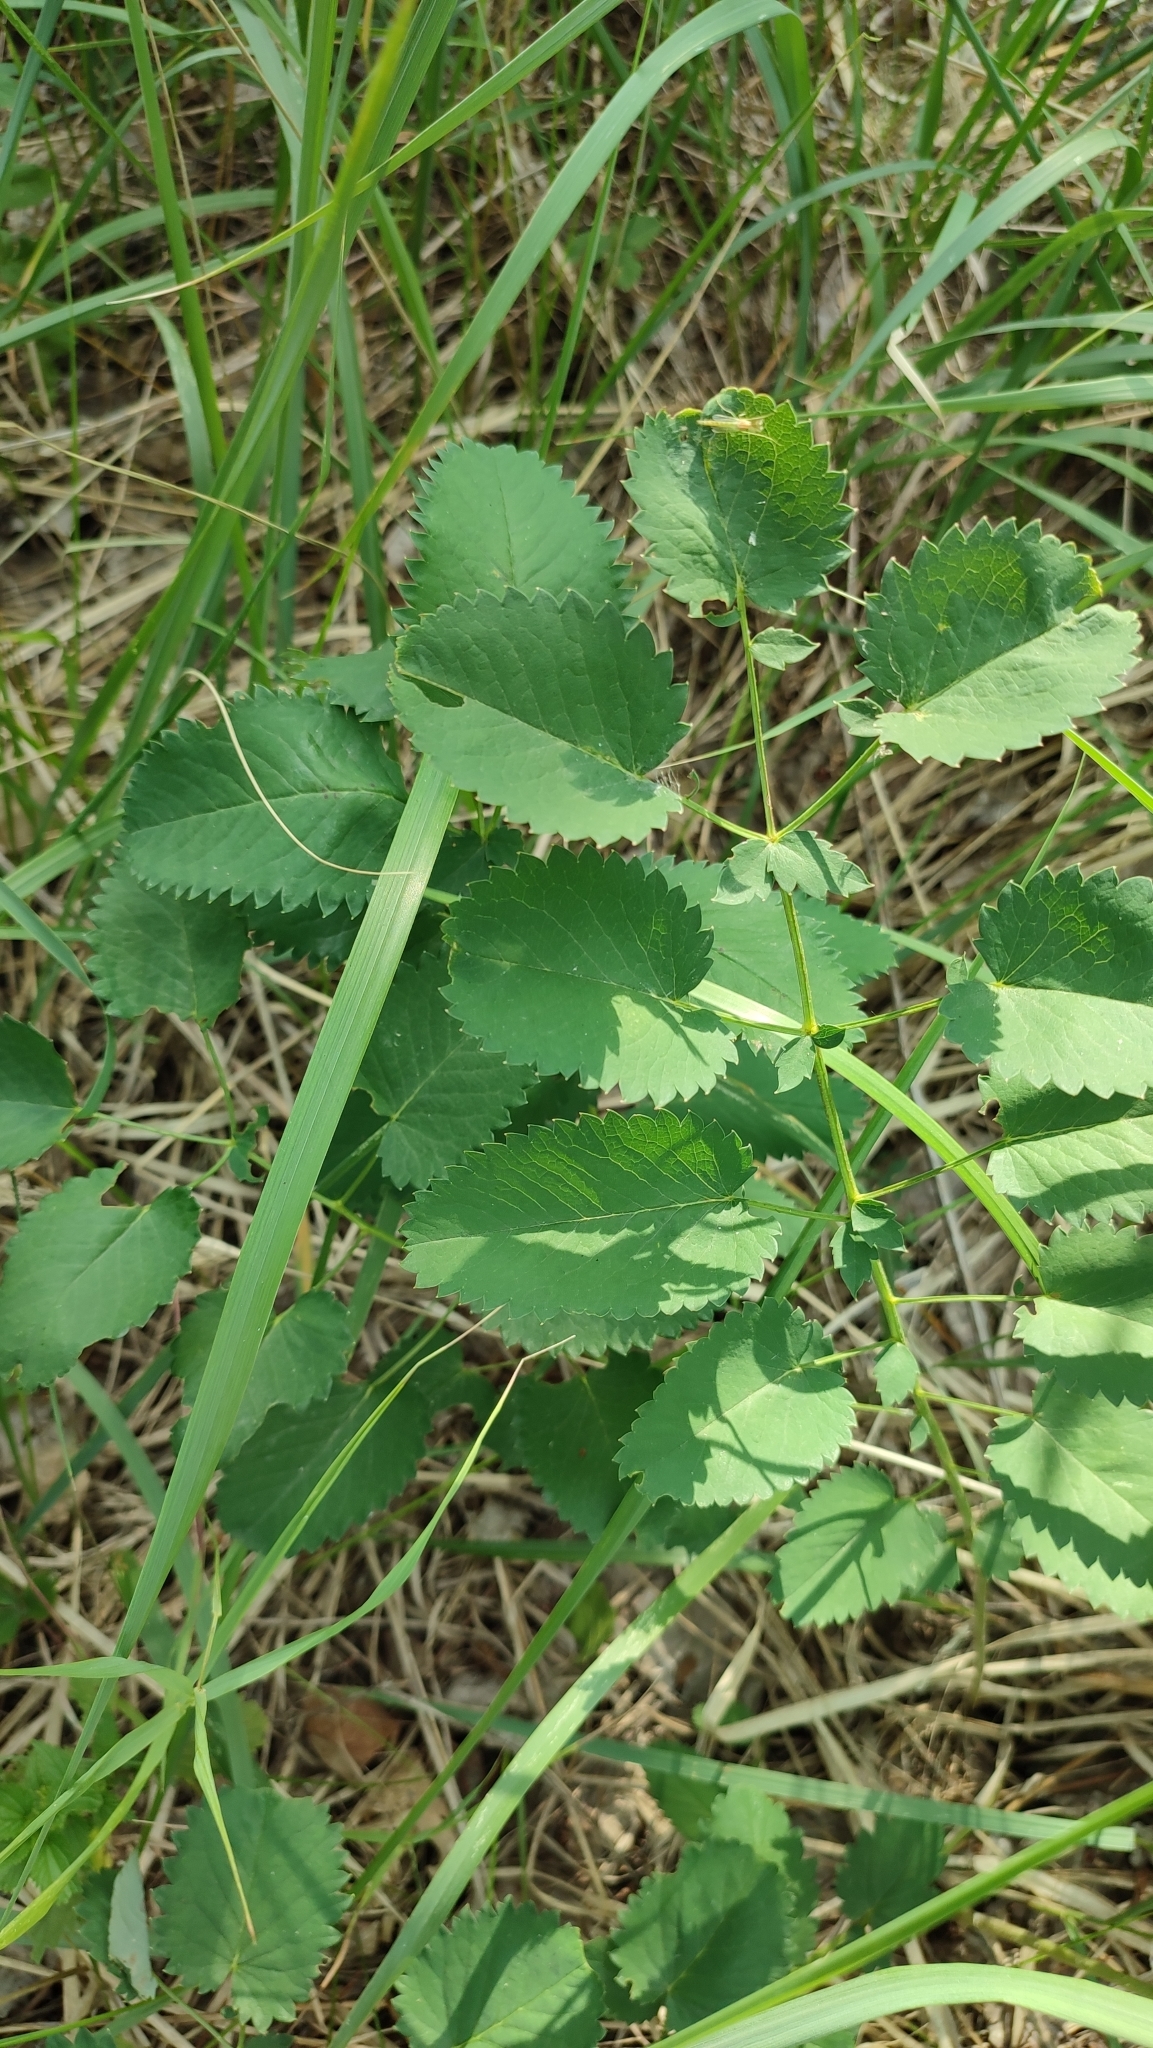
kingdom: Plantae
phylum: Tracheophyta
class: Magnoliopsida
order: Rosales
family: Rosaceae
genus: Sanguisorba
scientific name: Sanguisorba officinalis
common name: Great burnet
